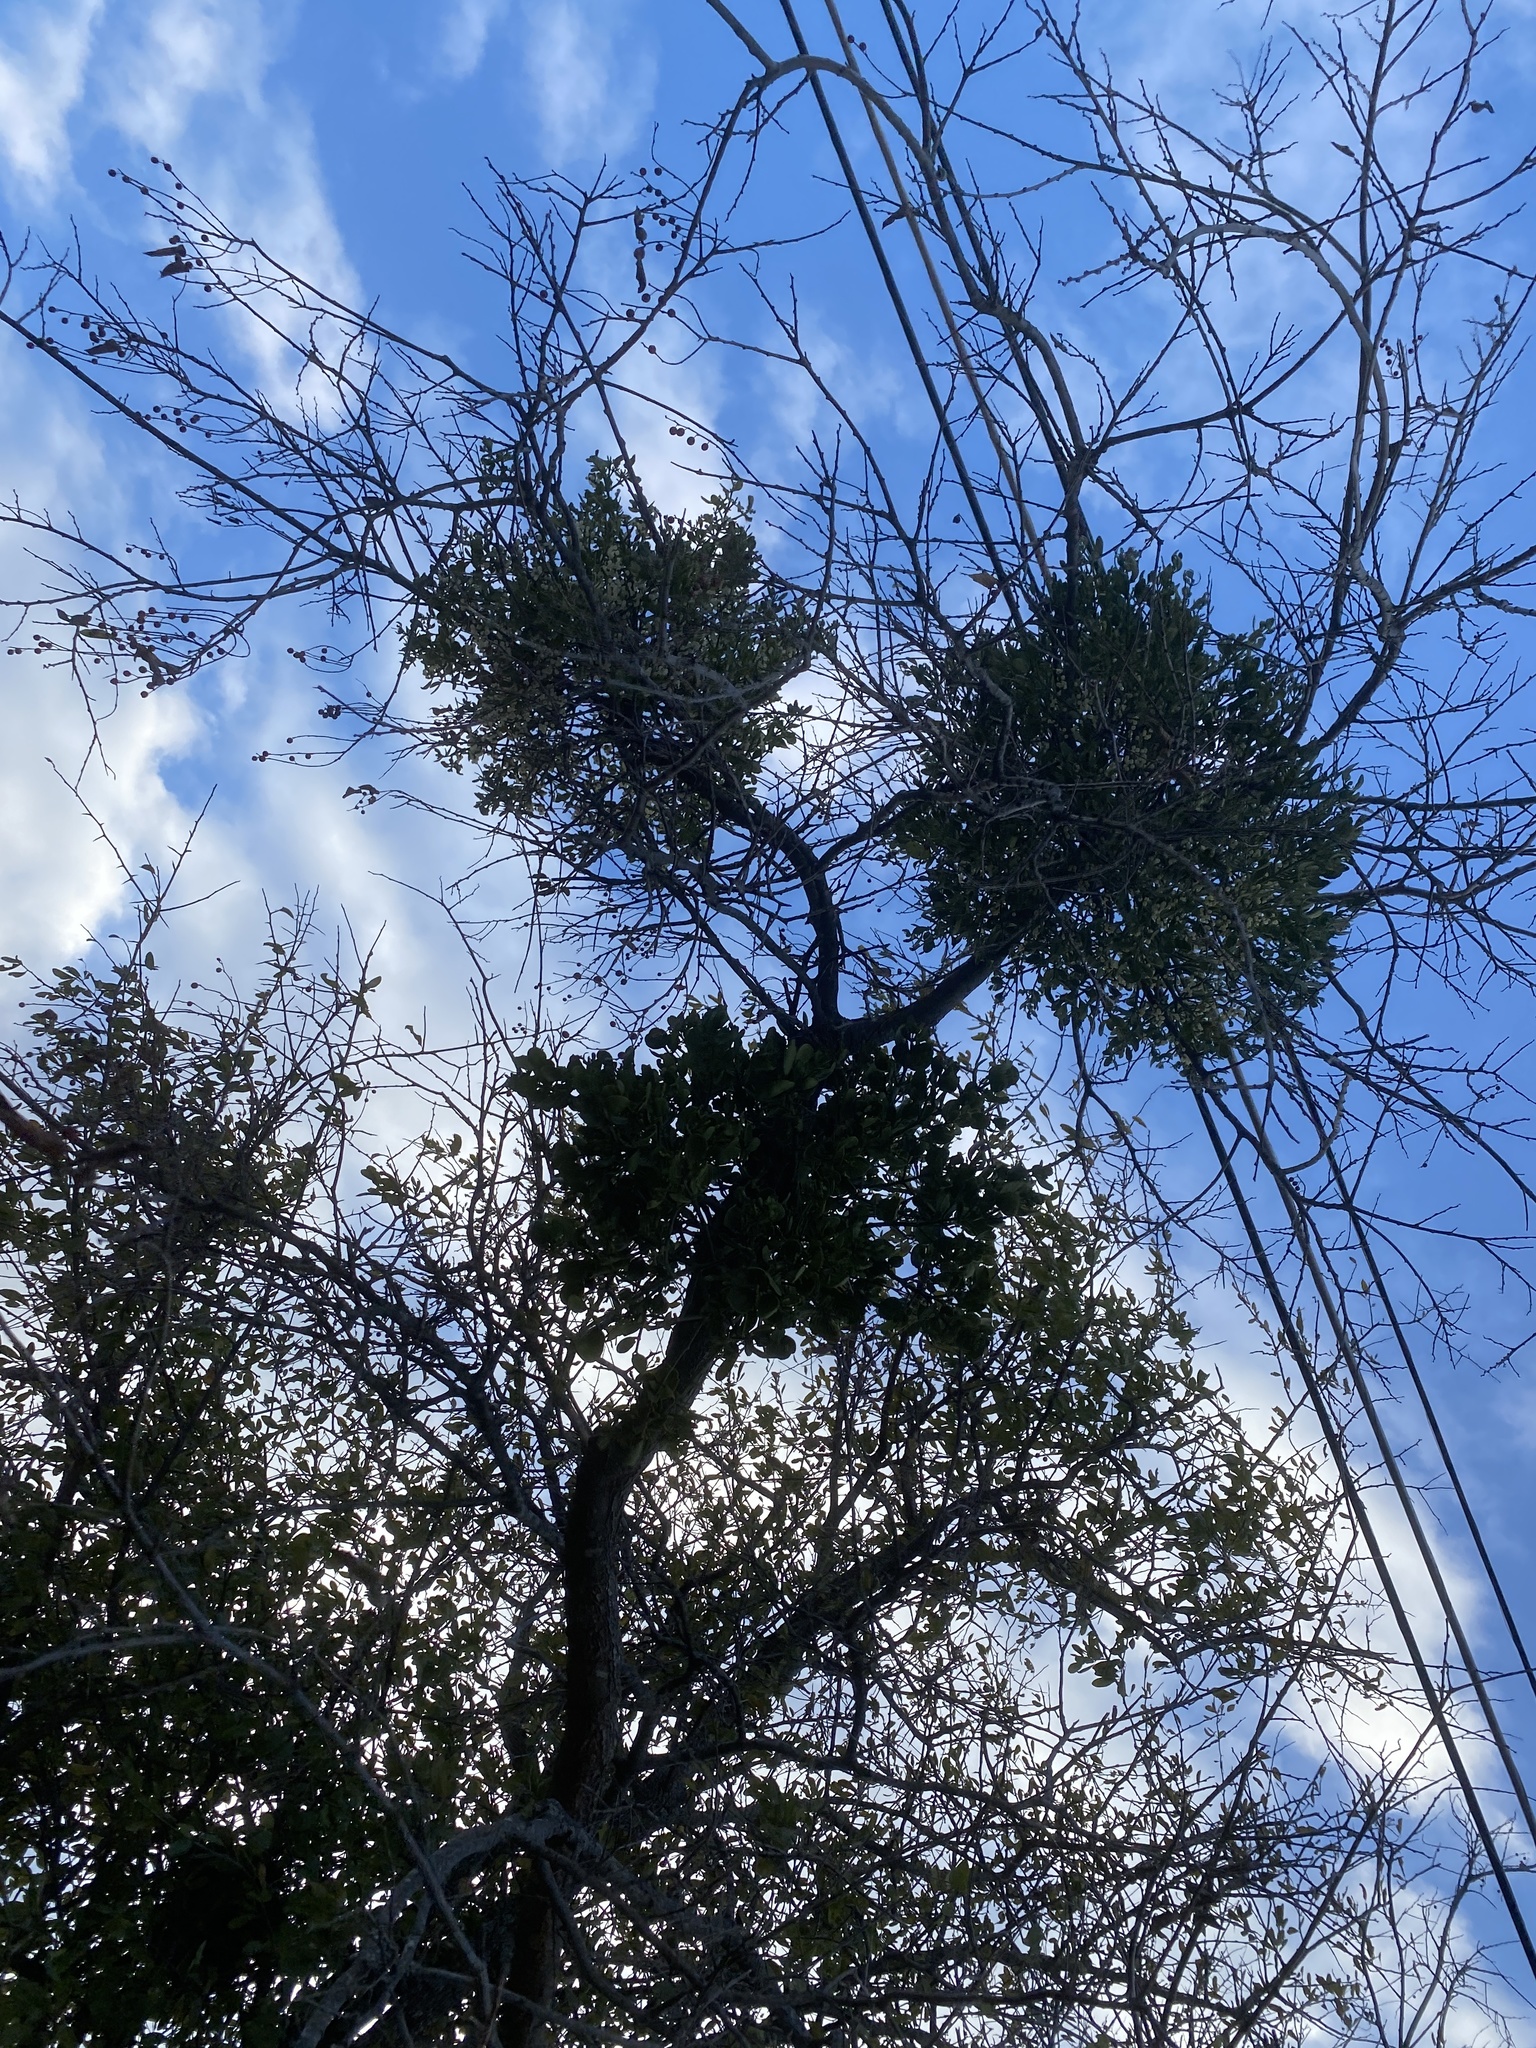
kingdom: Plantae
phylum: Tracheophyta
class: Magnoliopsida
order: Santalales
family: Viscaceae
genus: Phoradendron
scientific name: Phoradendron leucarpum
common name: Pacific mistletoe
